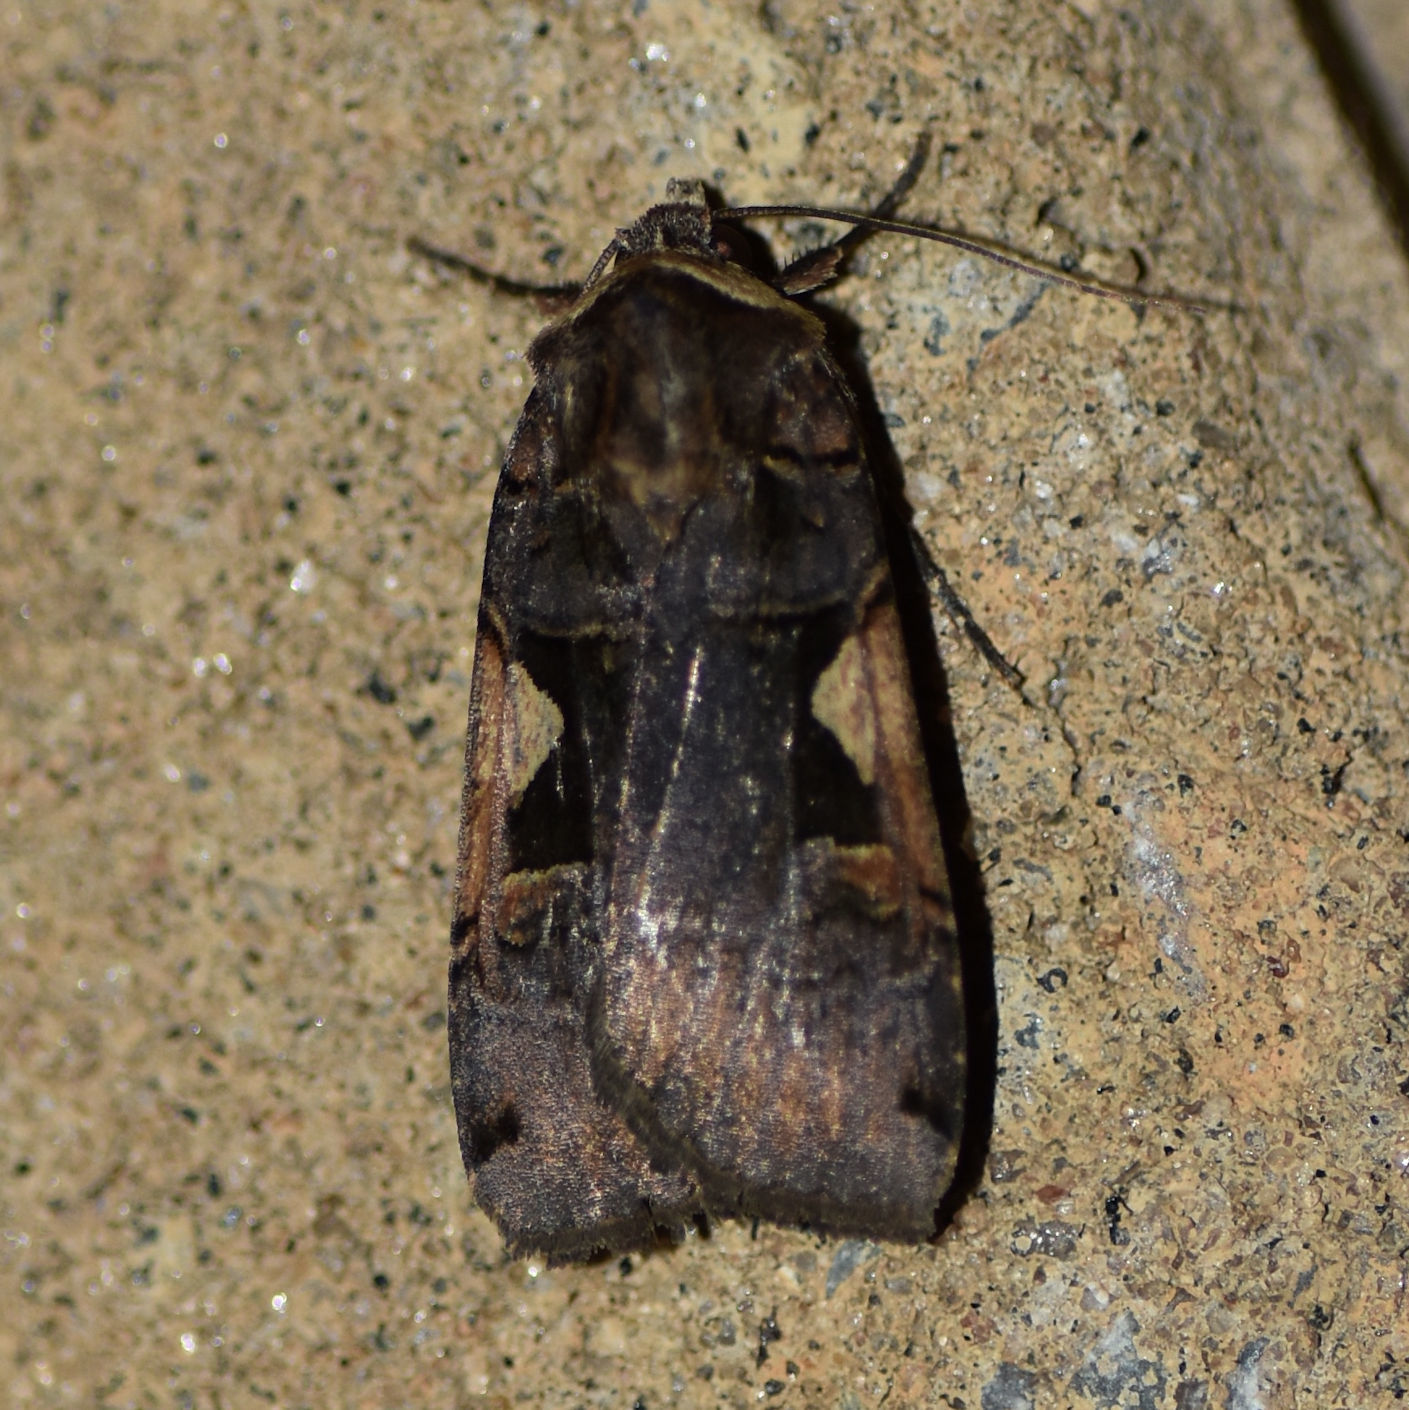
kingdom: Animalia
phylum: Arthropoda
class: Insecta
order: Lepidoptera
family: Noctuidae
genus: Xestia
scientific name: Xestia
